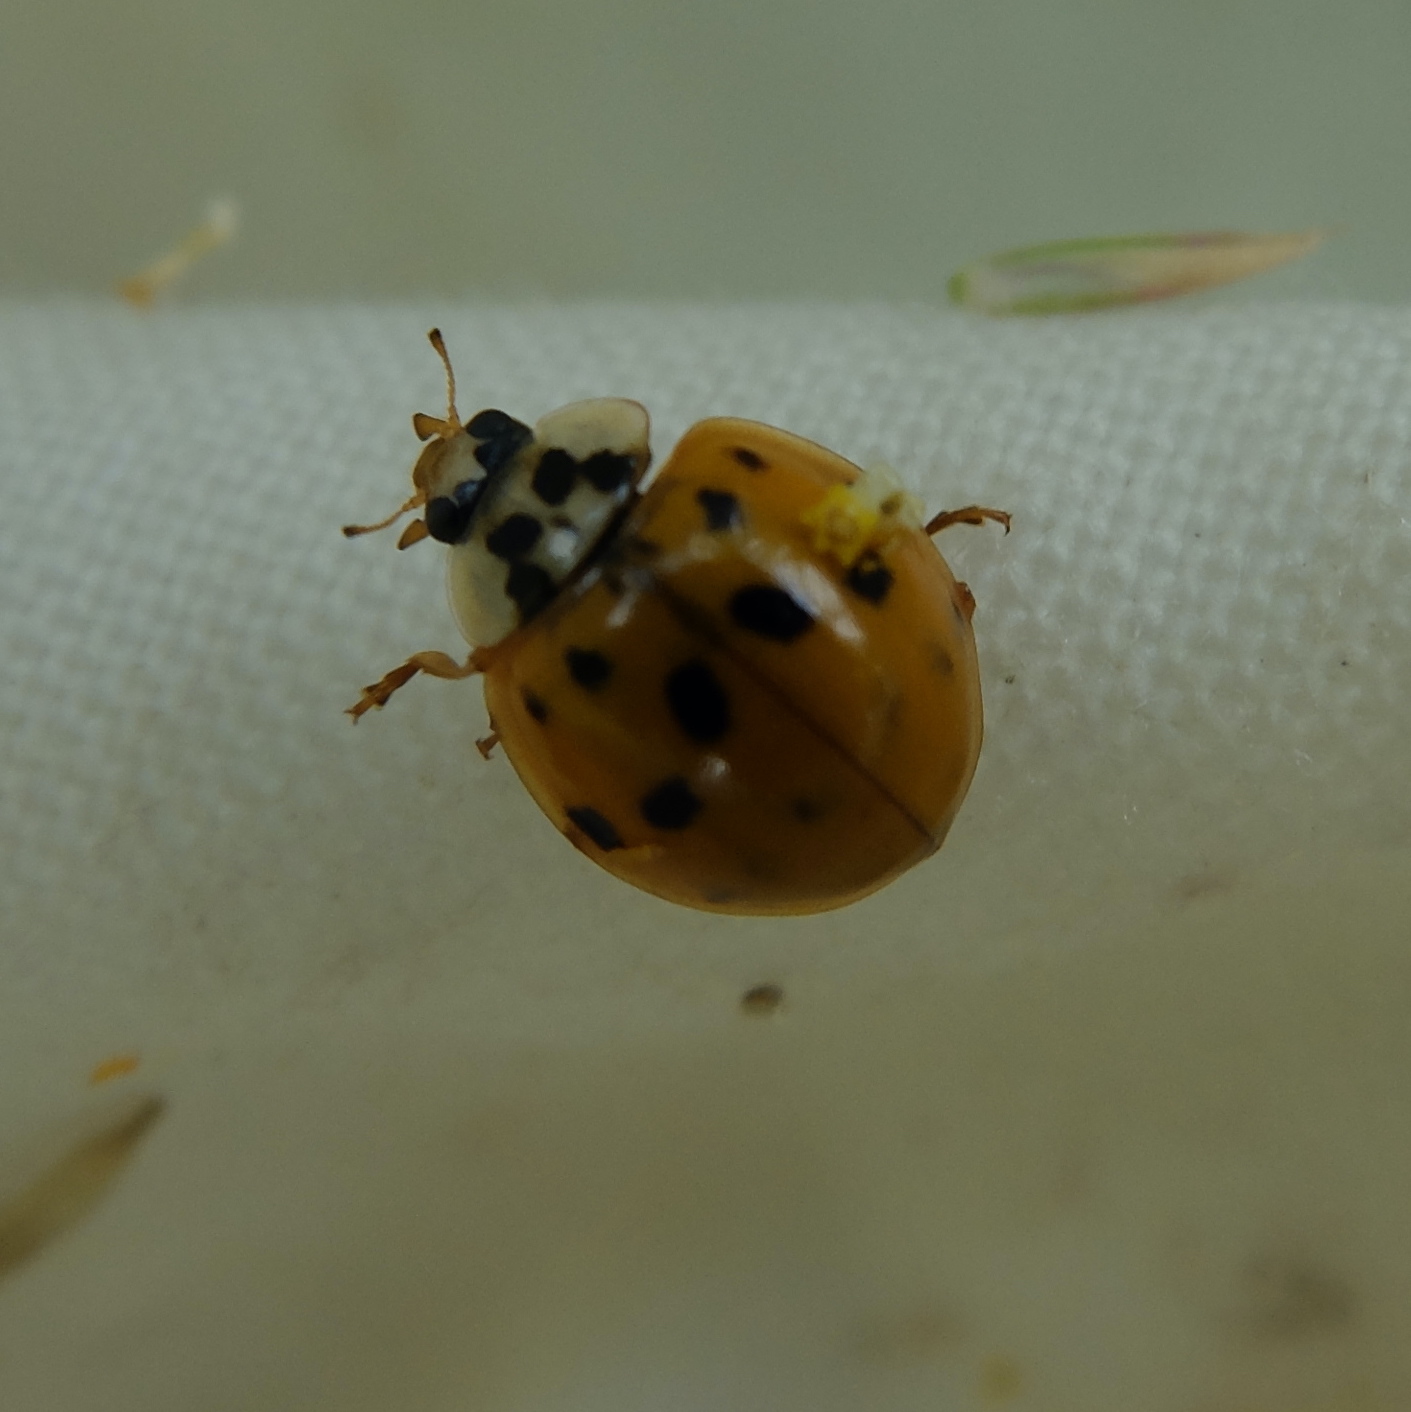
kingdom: Animalia
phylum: Arthropoda
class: Insecta
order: Coleoptera
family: Coccinellidae
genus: Harmonia
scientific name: Harmonia axyridis
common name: Harlequin ladybird
